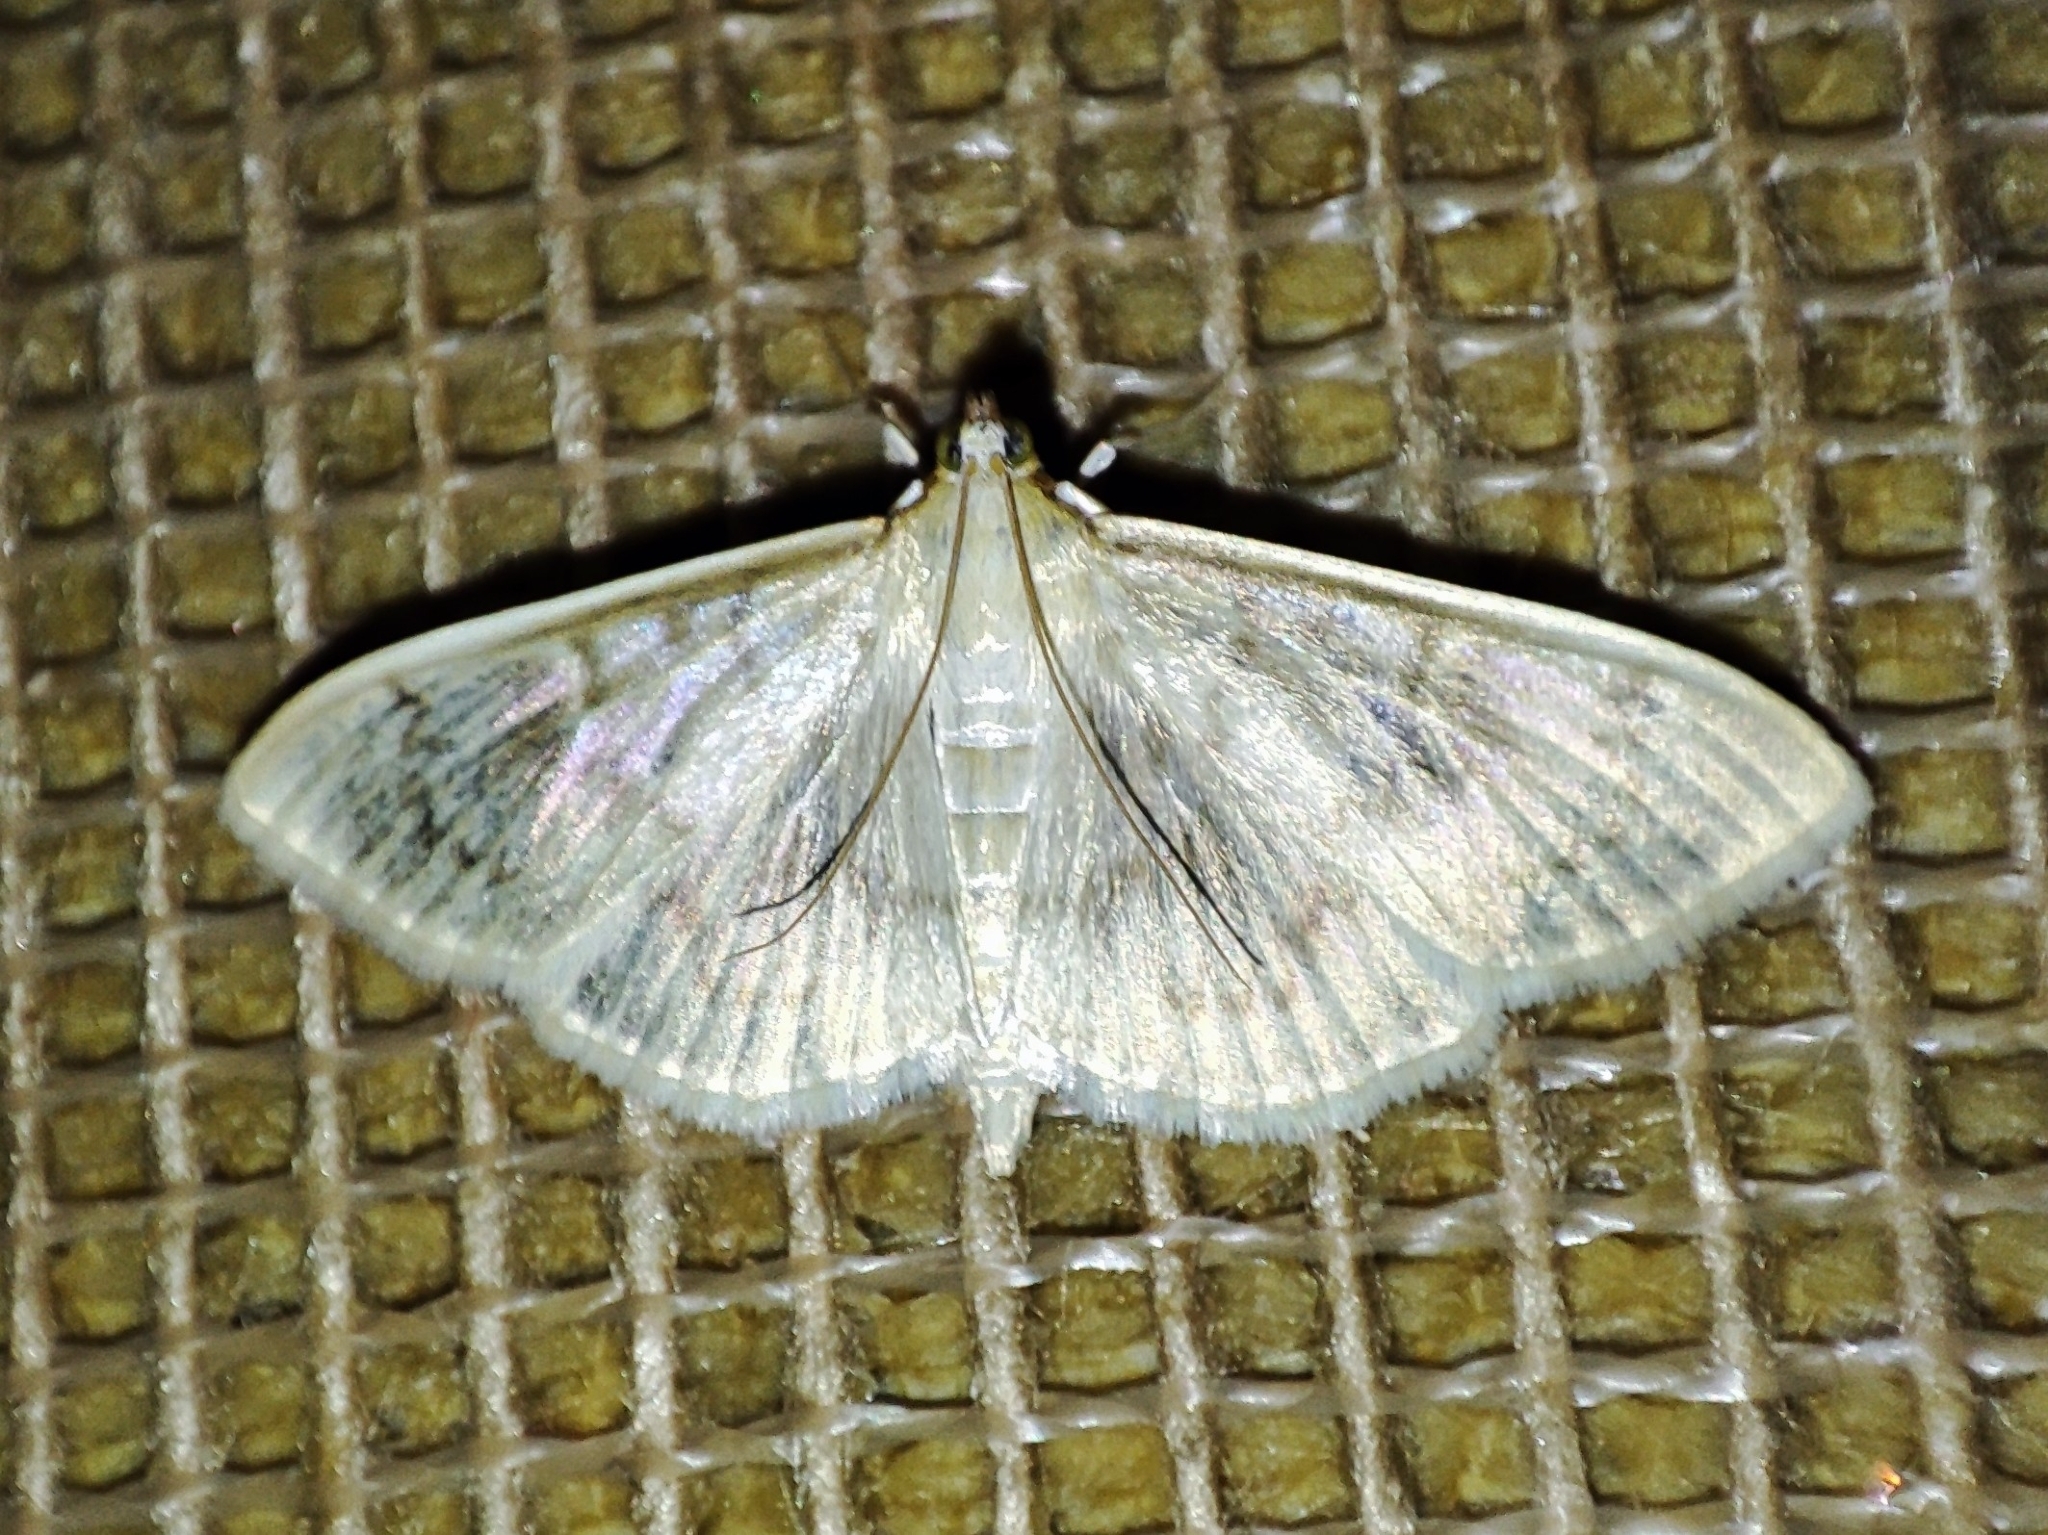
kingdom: Animalia
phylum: Arthropoda
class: Insecta
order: Lepidoptera
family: Crambidae
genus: Patania
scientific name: Patania ruralis
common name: Mother of pearl
